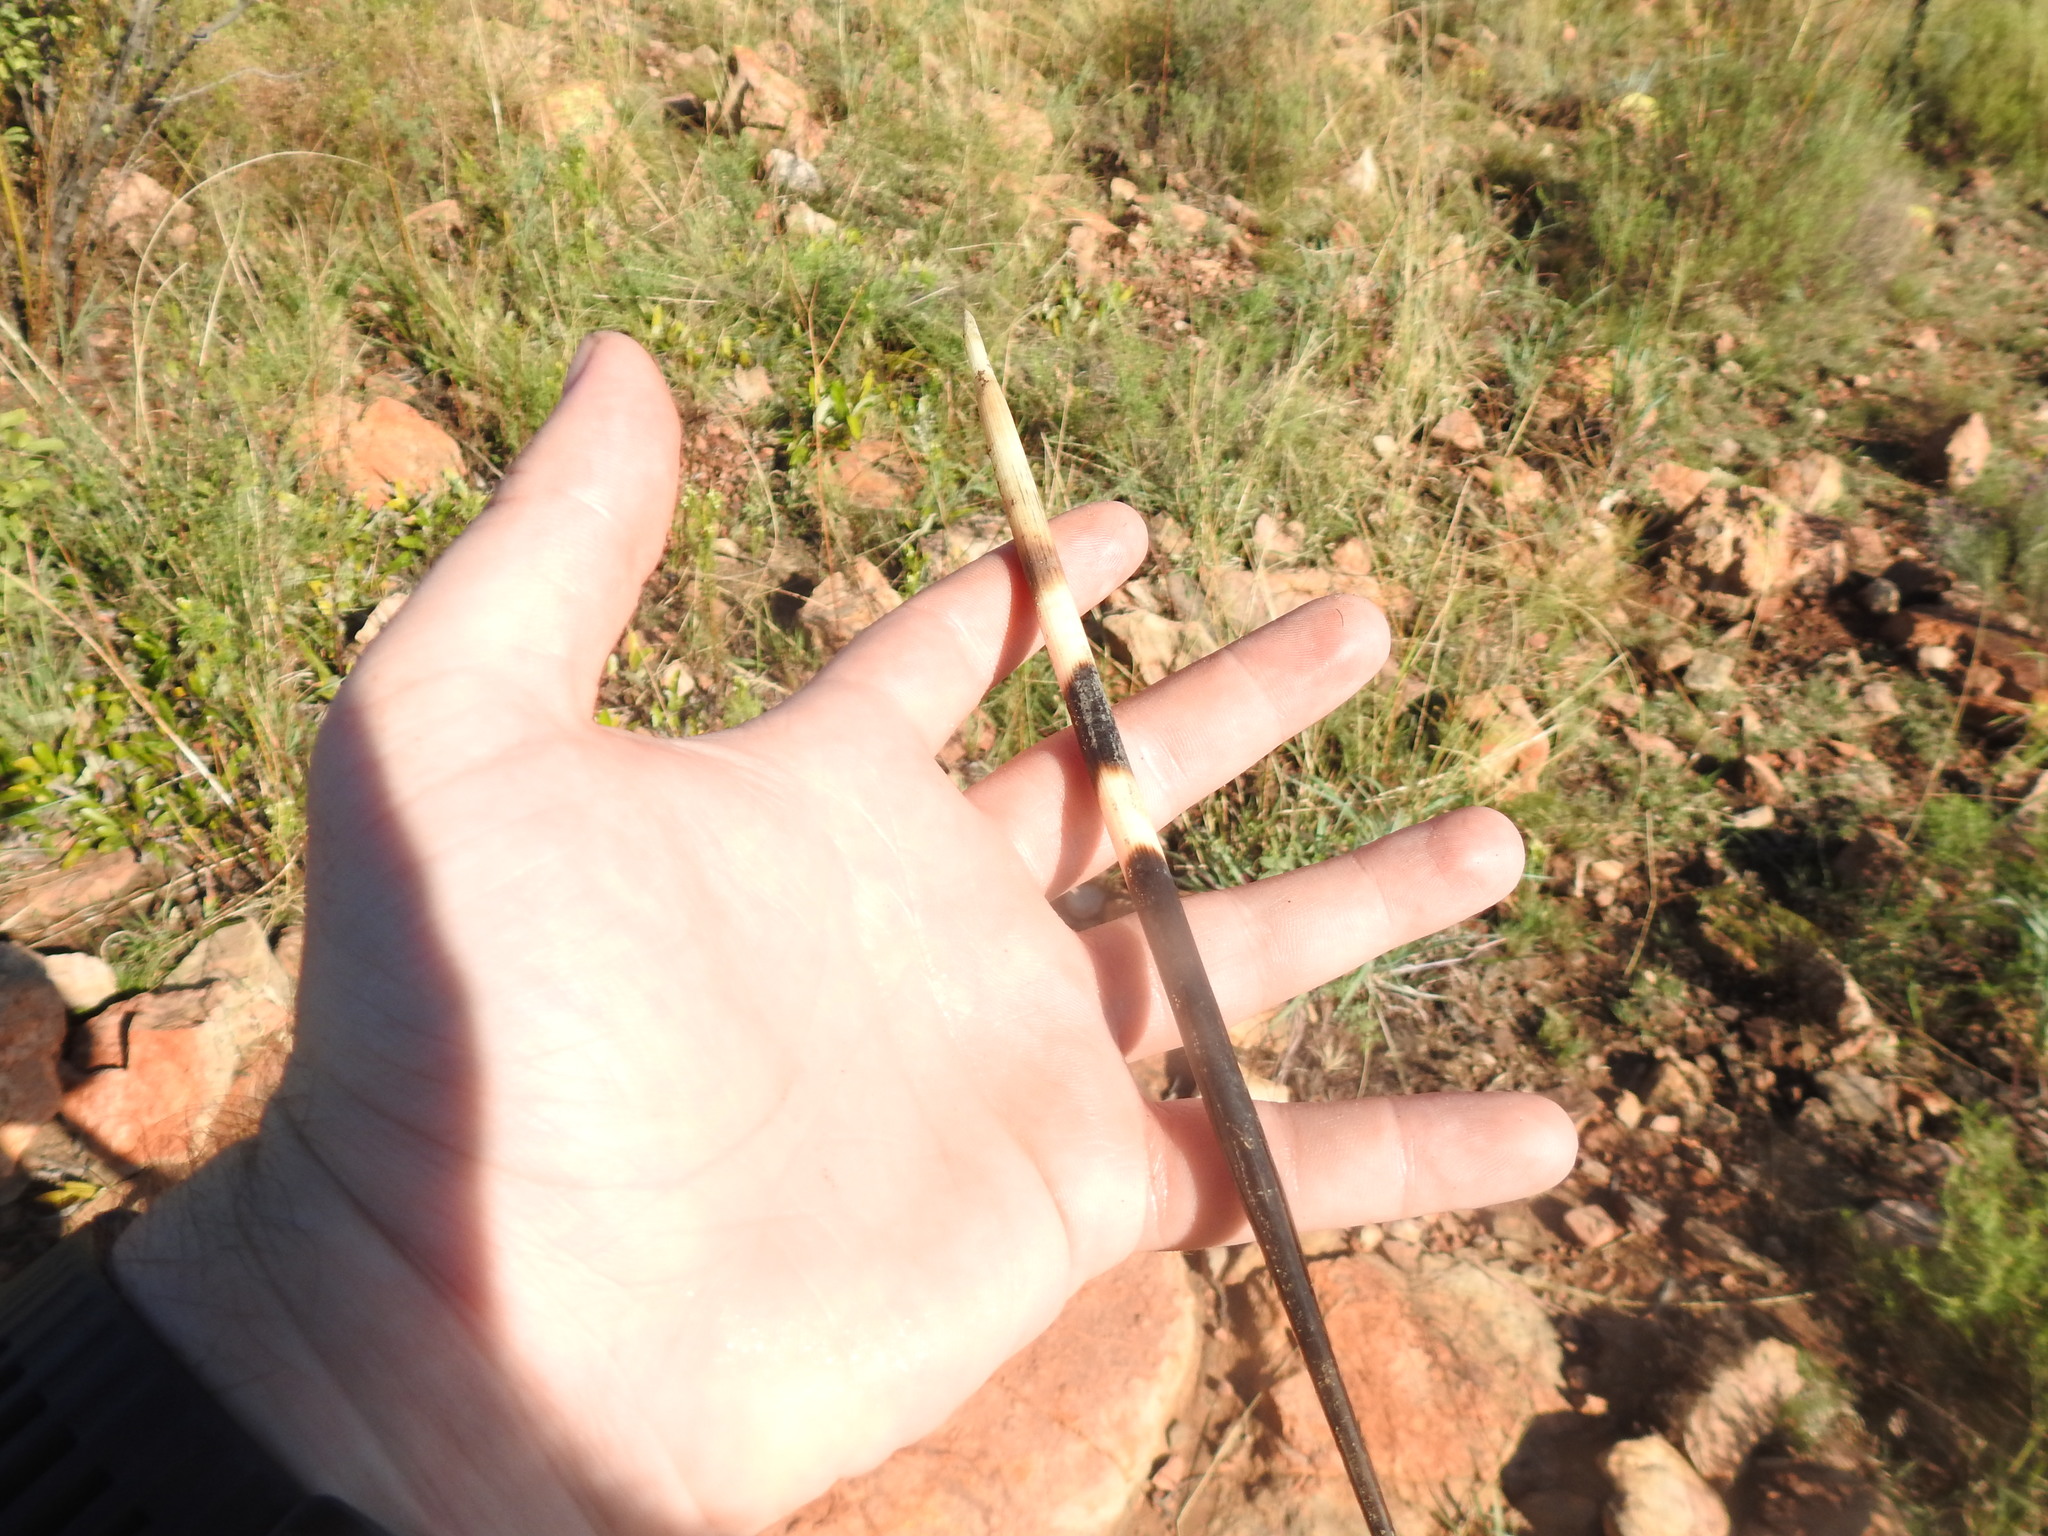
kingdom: Animalia
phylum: Chordata
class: Mammalia
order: Rodentia
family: Hystricidae
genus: Hystrix
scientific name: Hystrix africaeaustralis
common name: Cape porcupine
